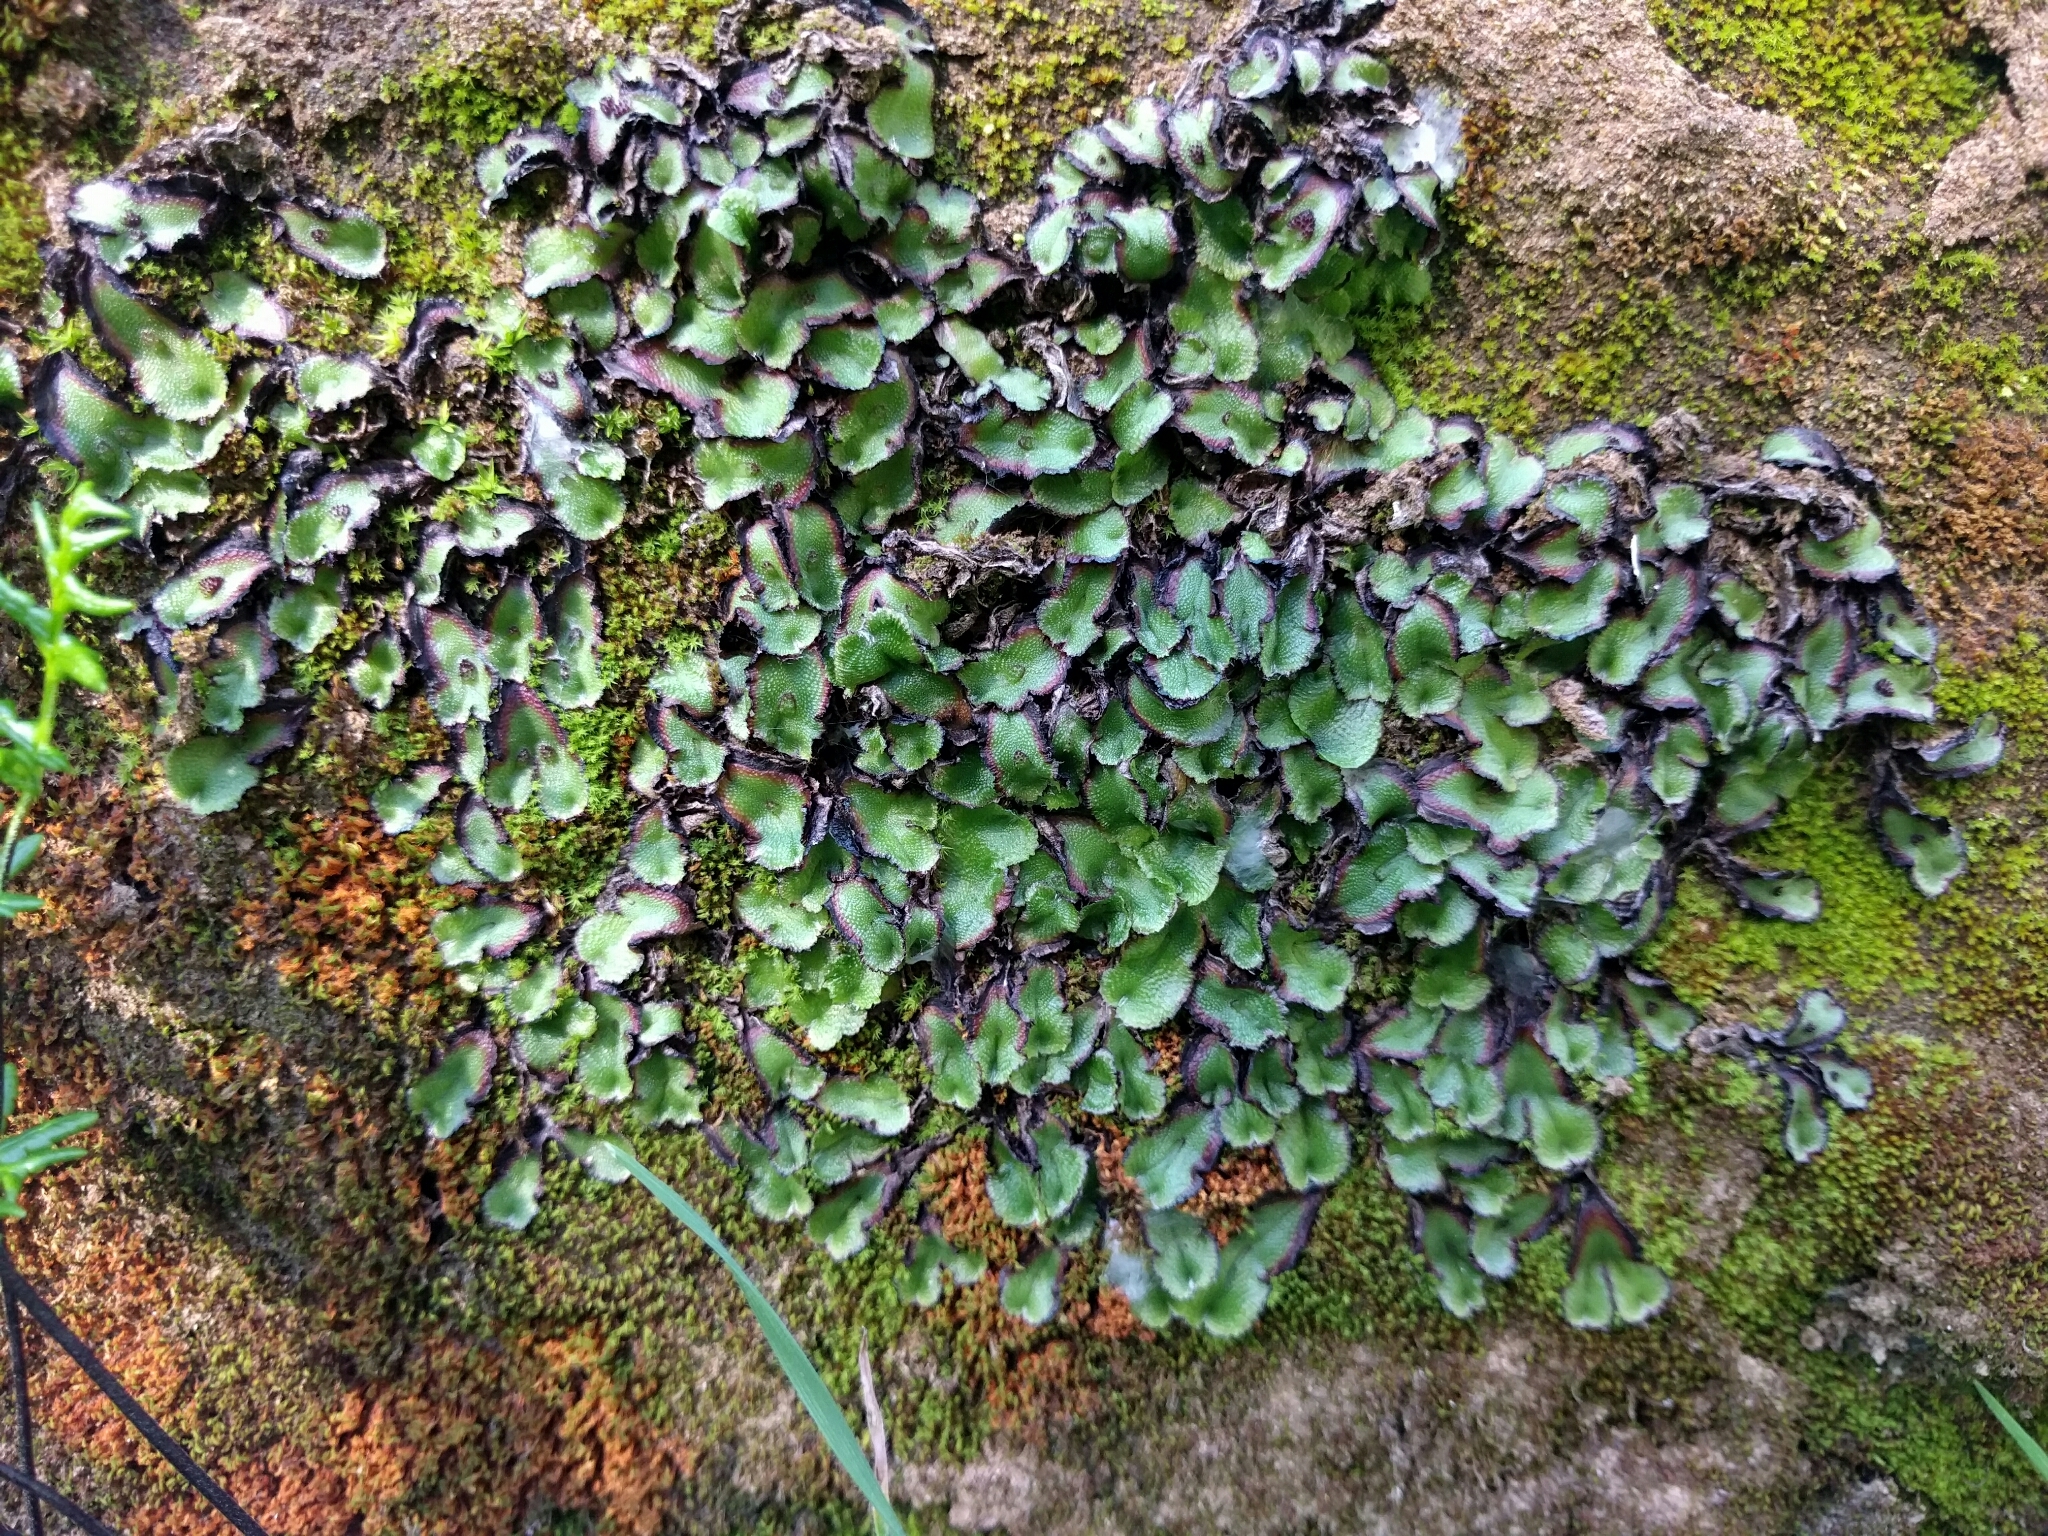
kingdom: Plantae
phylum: Marchantiophyta
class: Marchantiopsida
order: Marchantiales
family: Aytoniaceae
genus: Asterella
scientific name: Asterella californica
